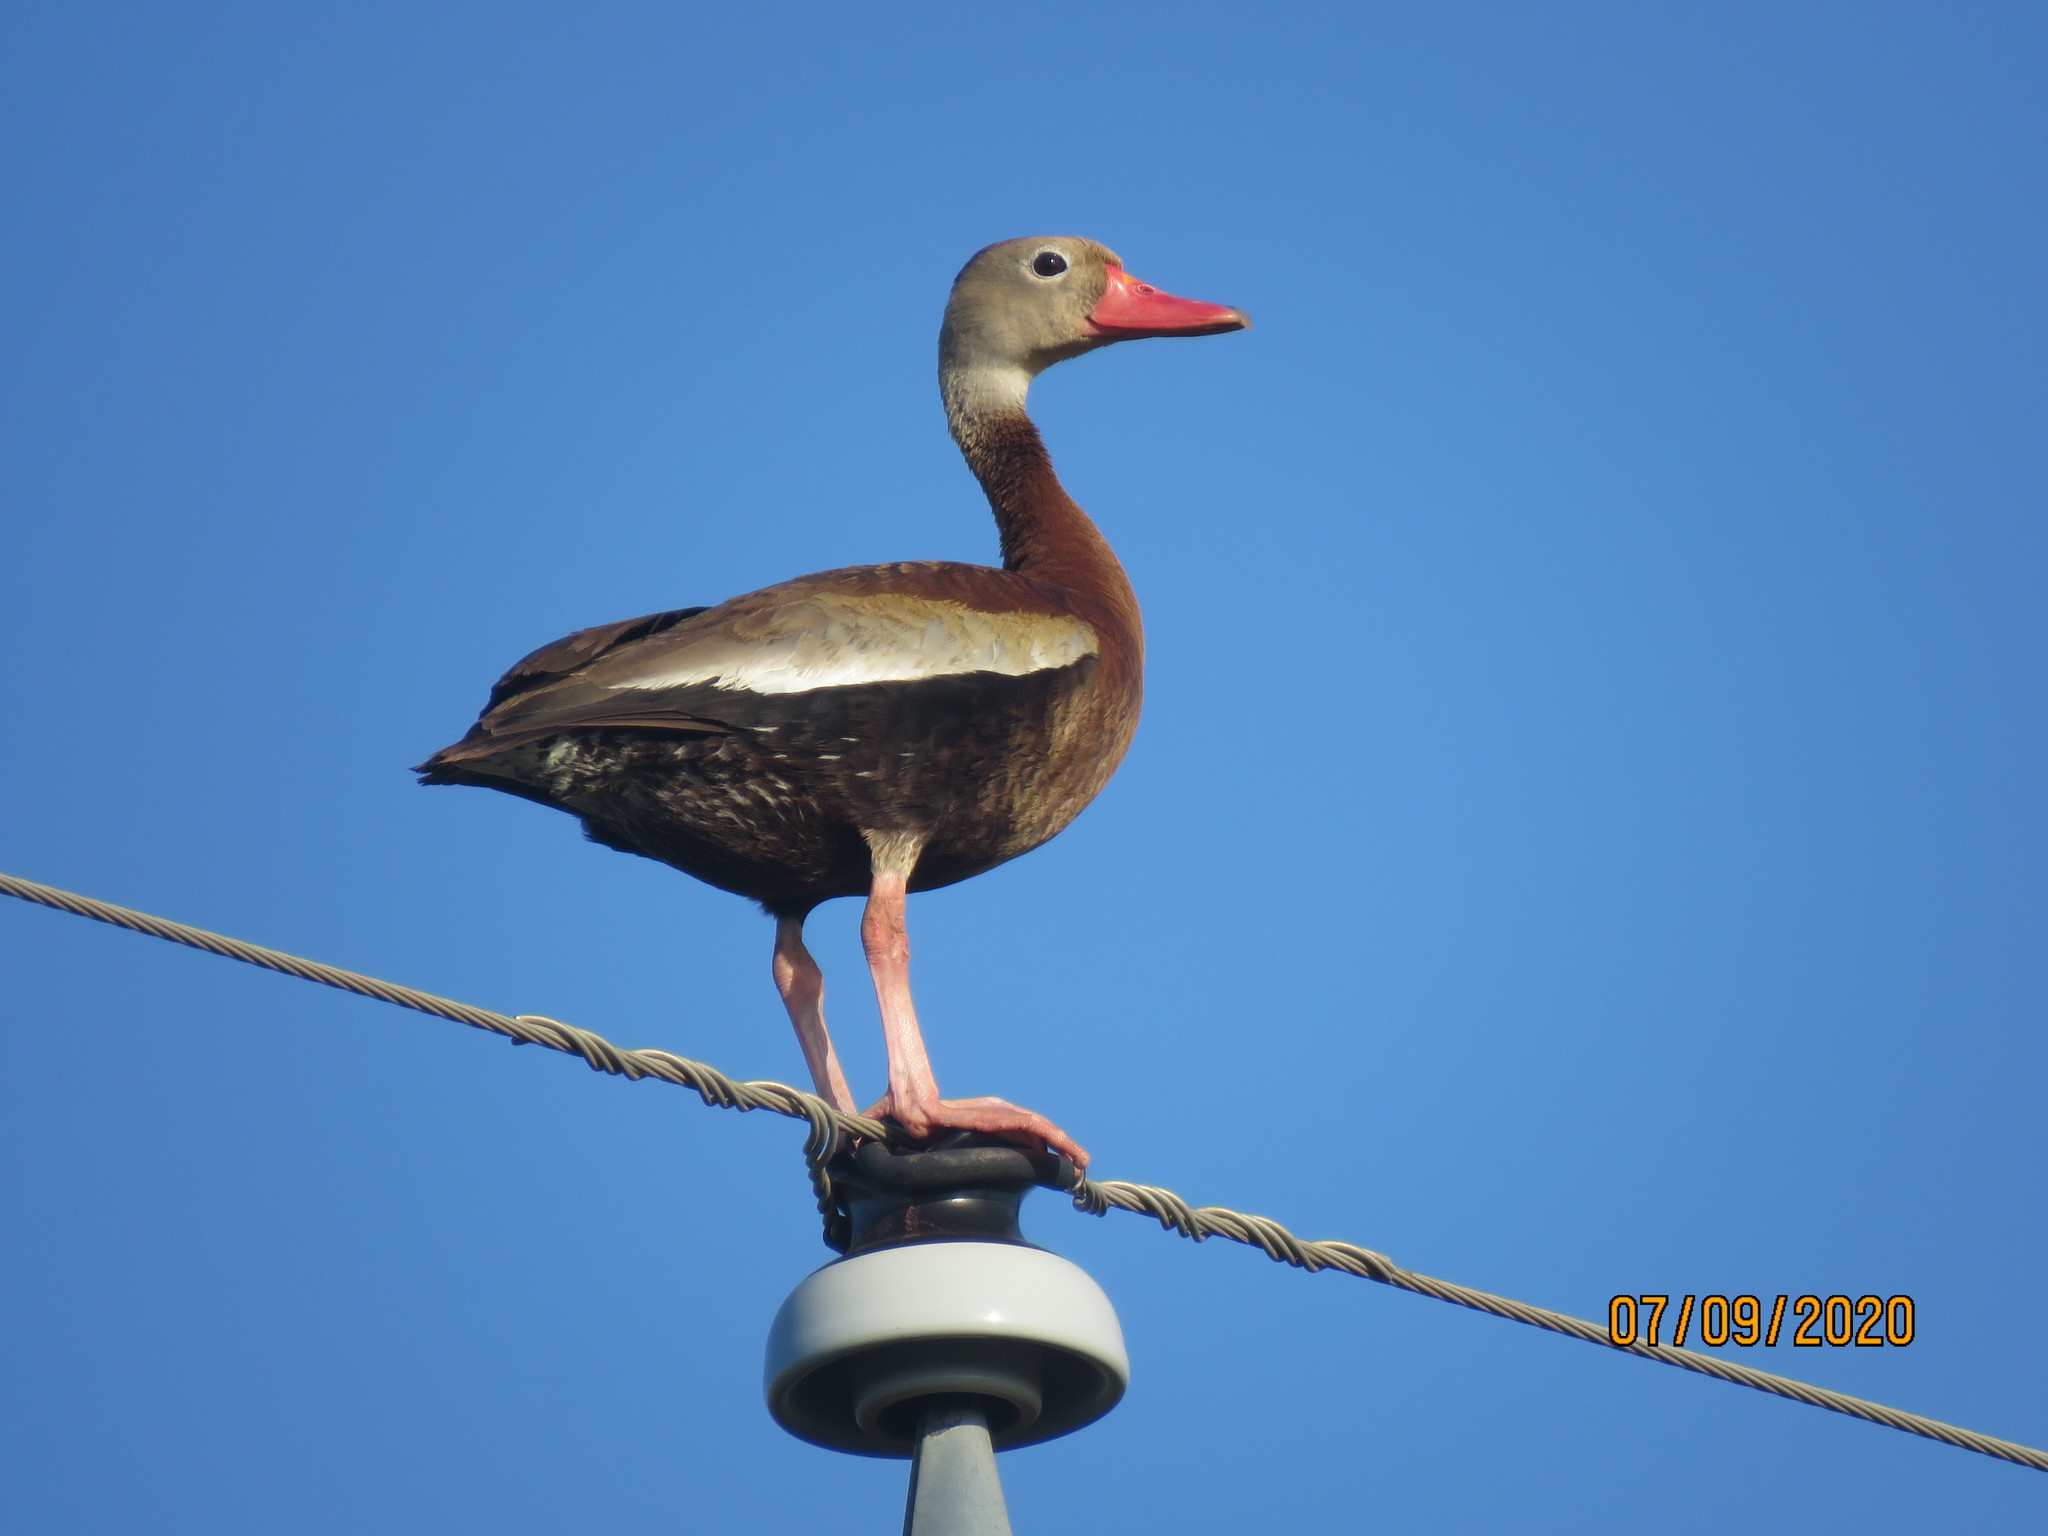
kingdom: Animalia
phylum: Chordata
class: Aves
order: Anseriformes
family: Anatidae
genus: Dendrocygna
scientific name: Dendrocygna autumnalis
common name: Black-bellied whistling duck
